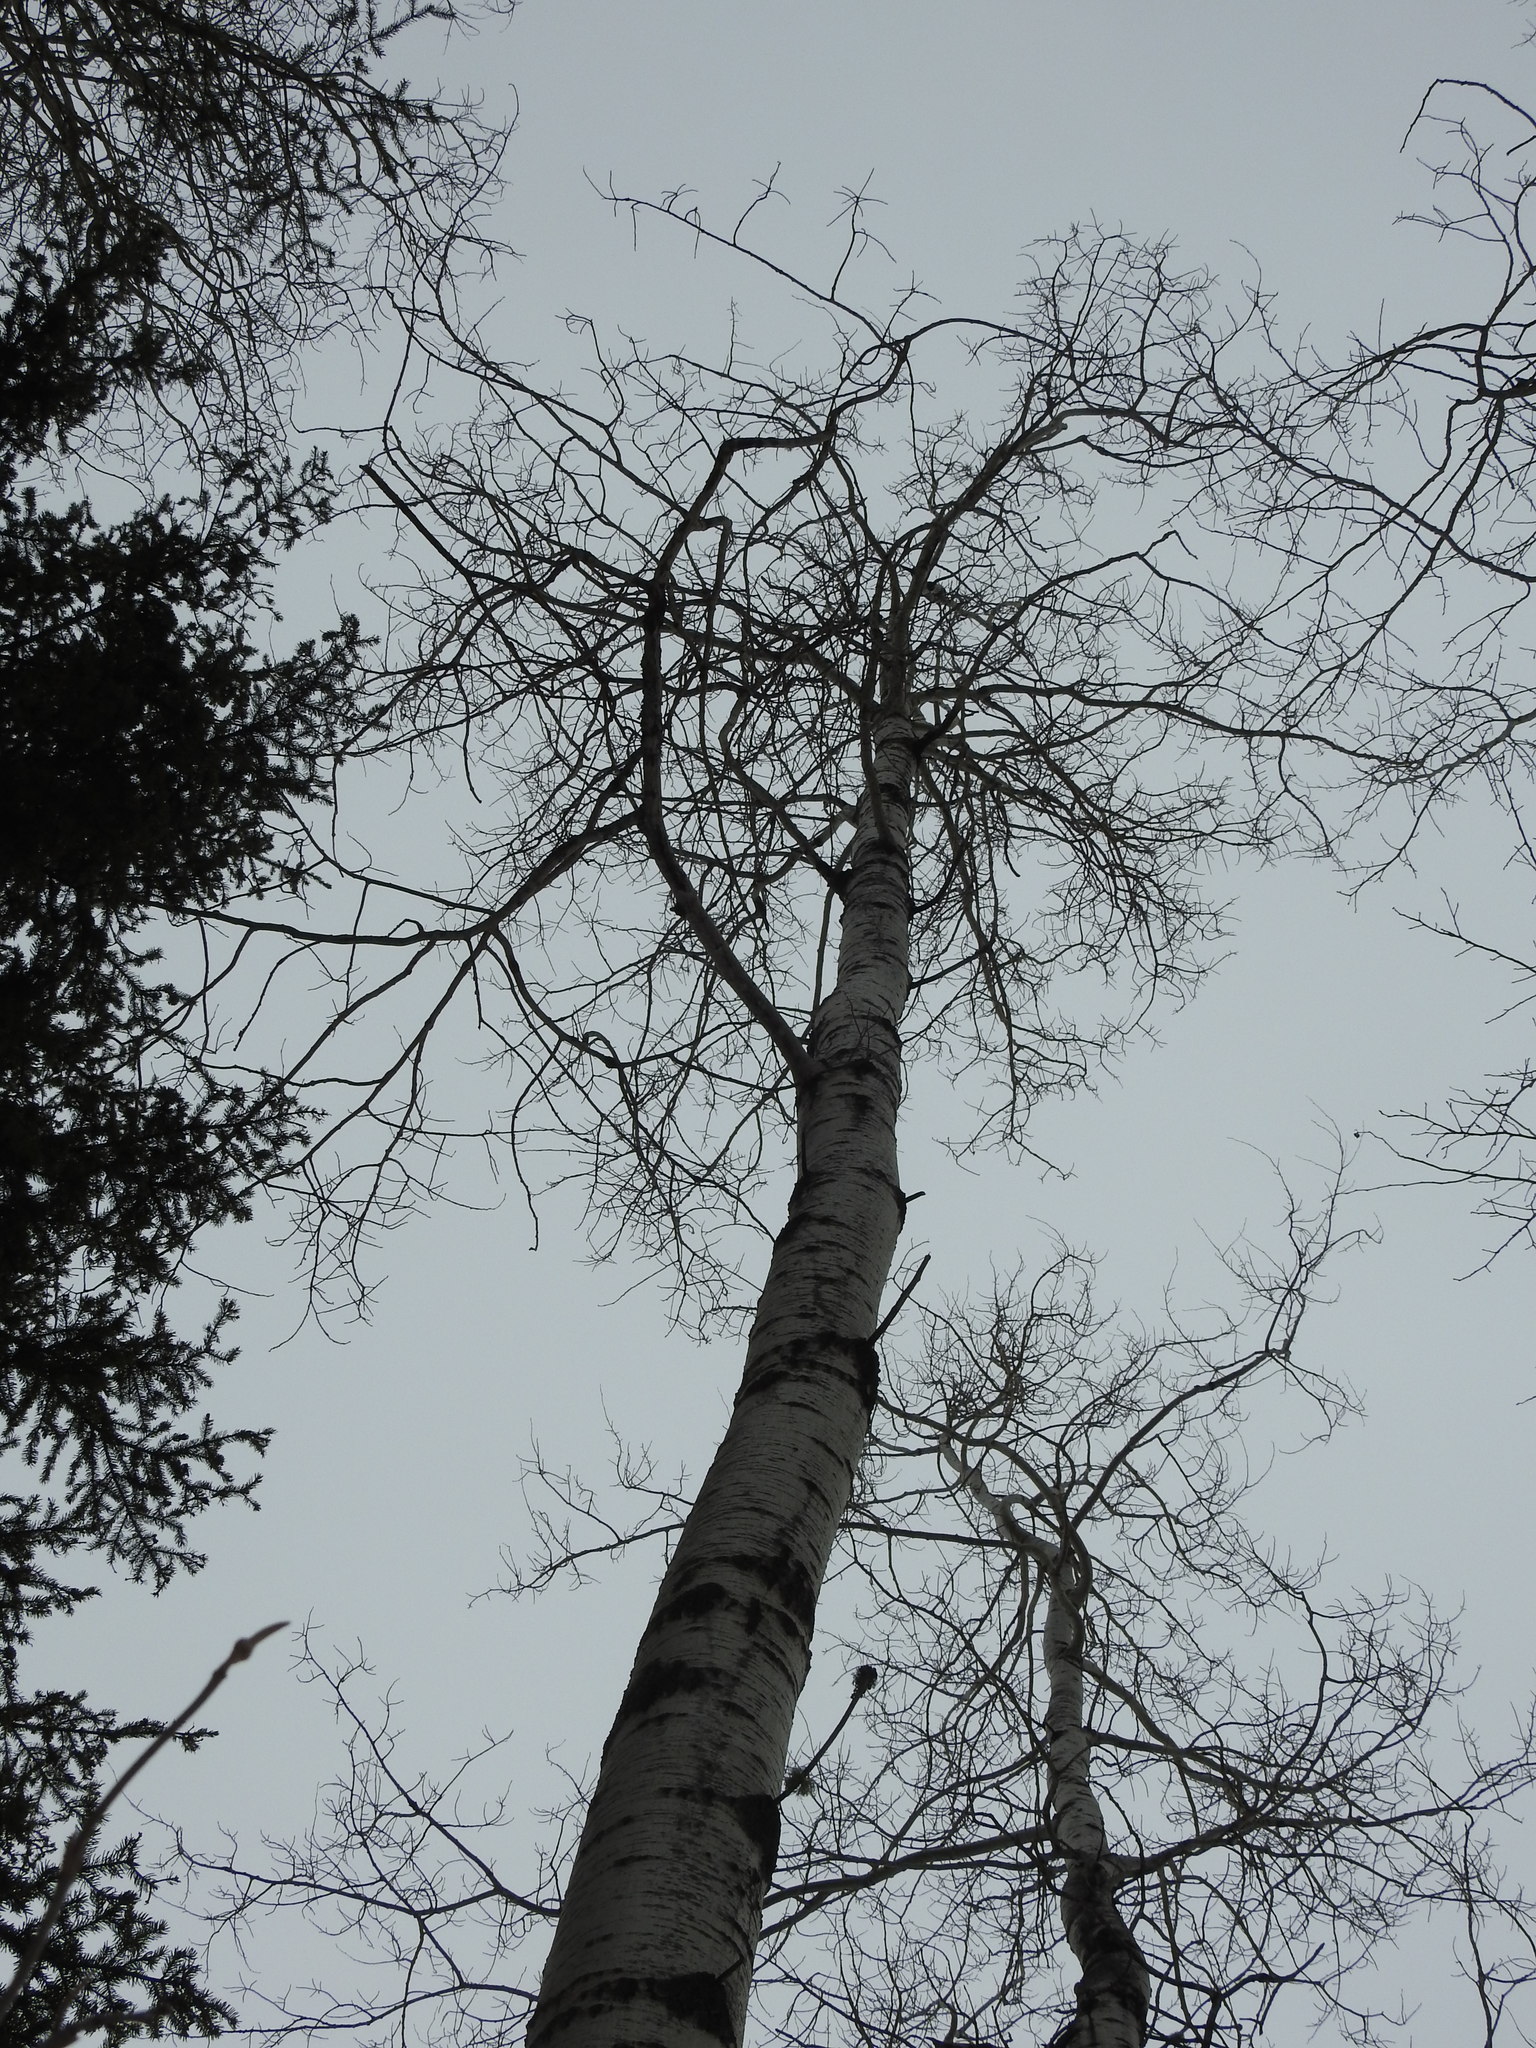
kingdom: Plantae
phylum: Tracheophyta
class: Magnoliopsida
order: Malpighiales
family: Salicaceae
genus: Populus
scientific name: Populus tremuloides
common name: Quaking aspen
